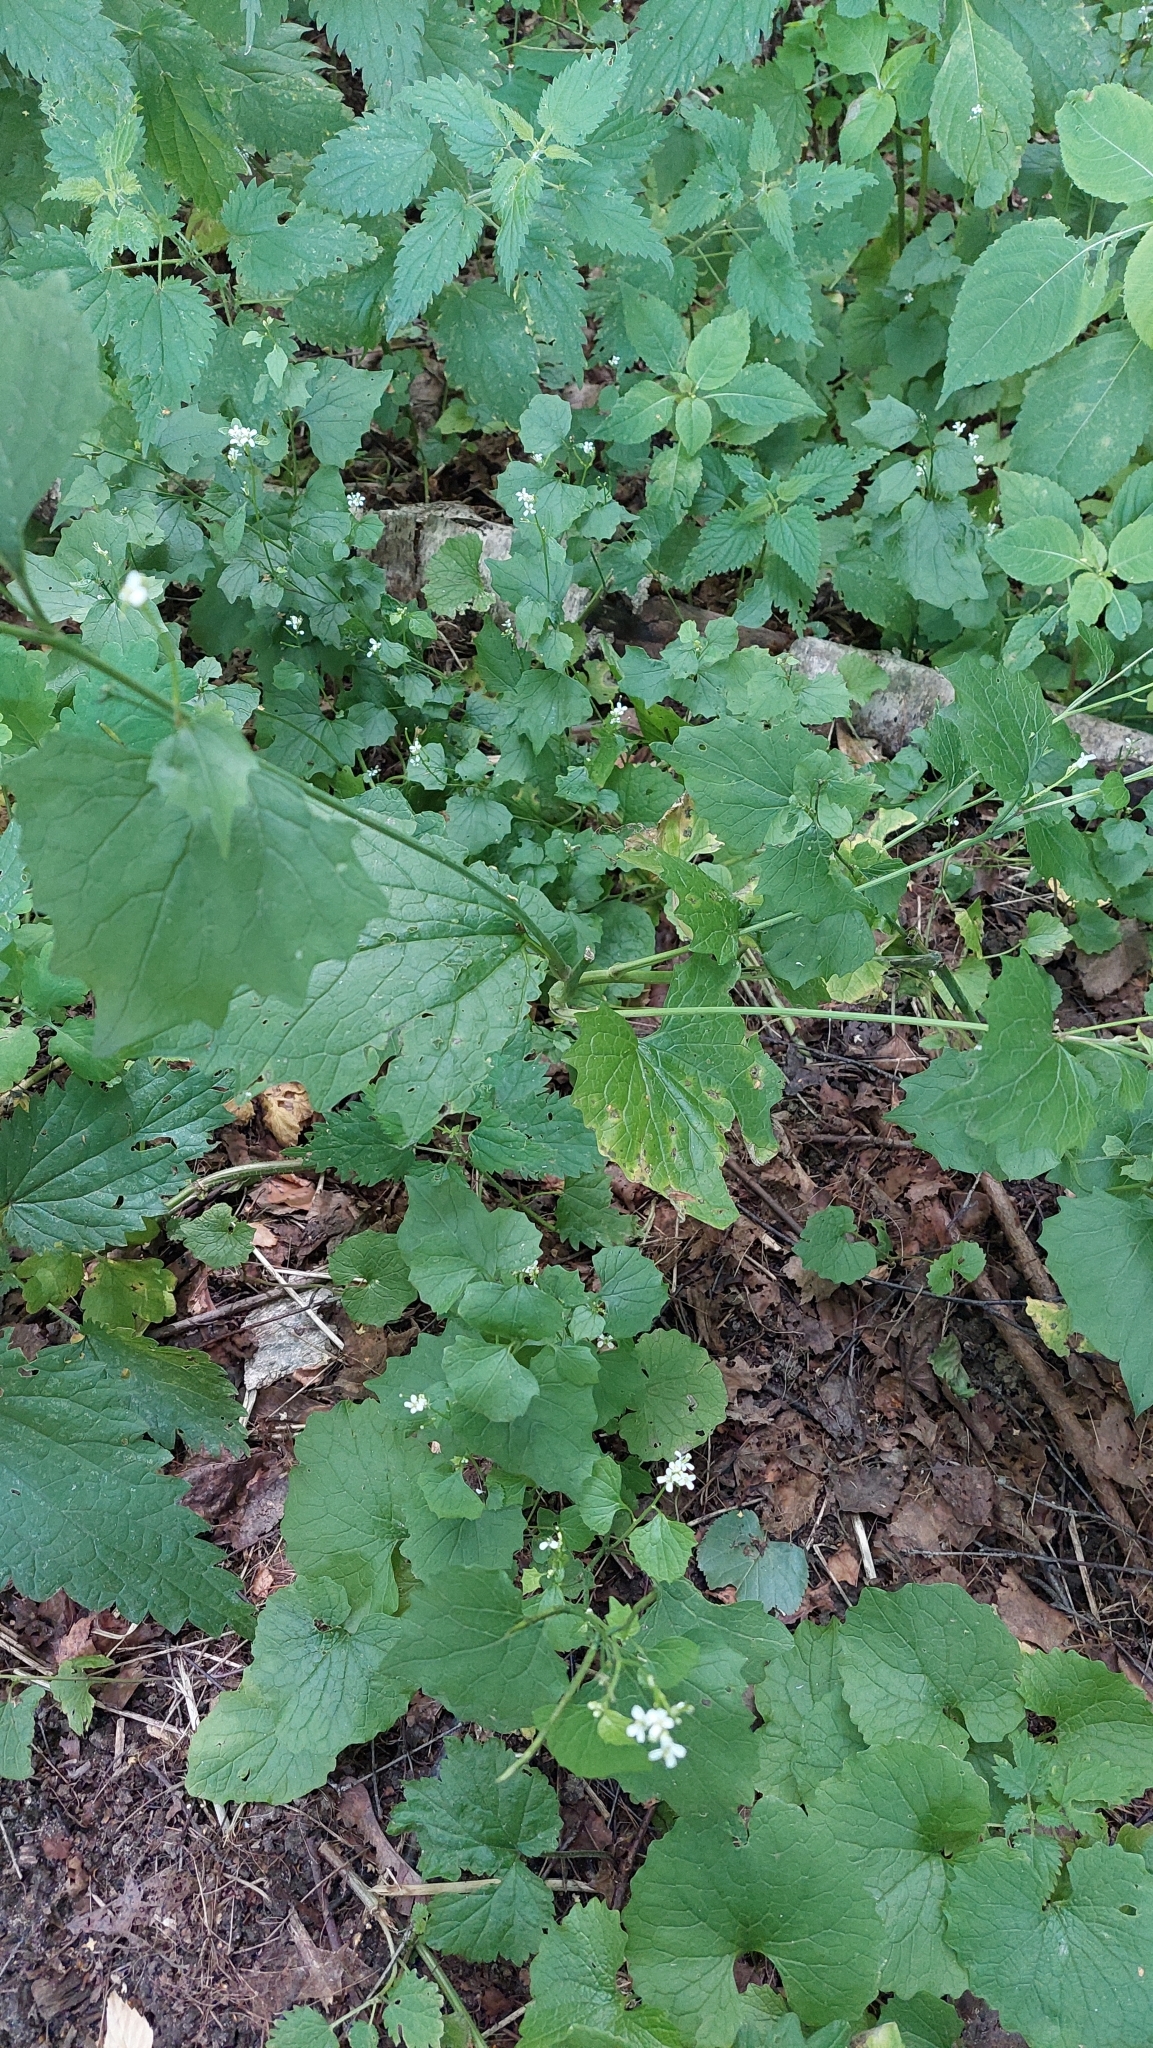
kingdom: Plantae
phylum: Tracheophyta
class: Magnoliopsida
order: Brassicales
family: Brassicaceae
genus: Alliaria
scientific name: Alliaria petiolata
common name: Garlic mustard
